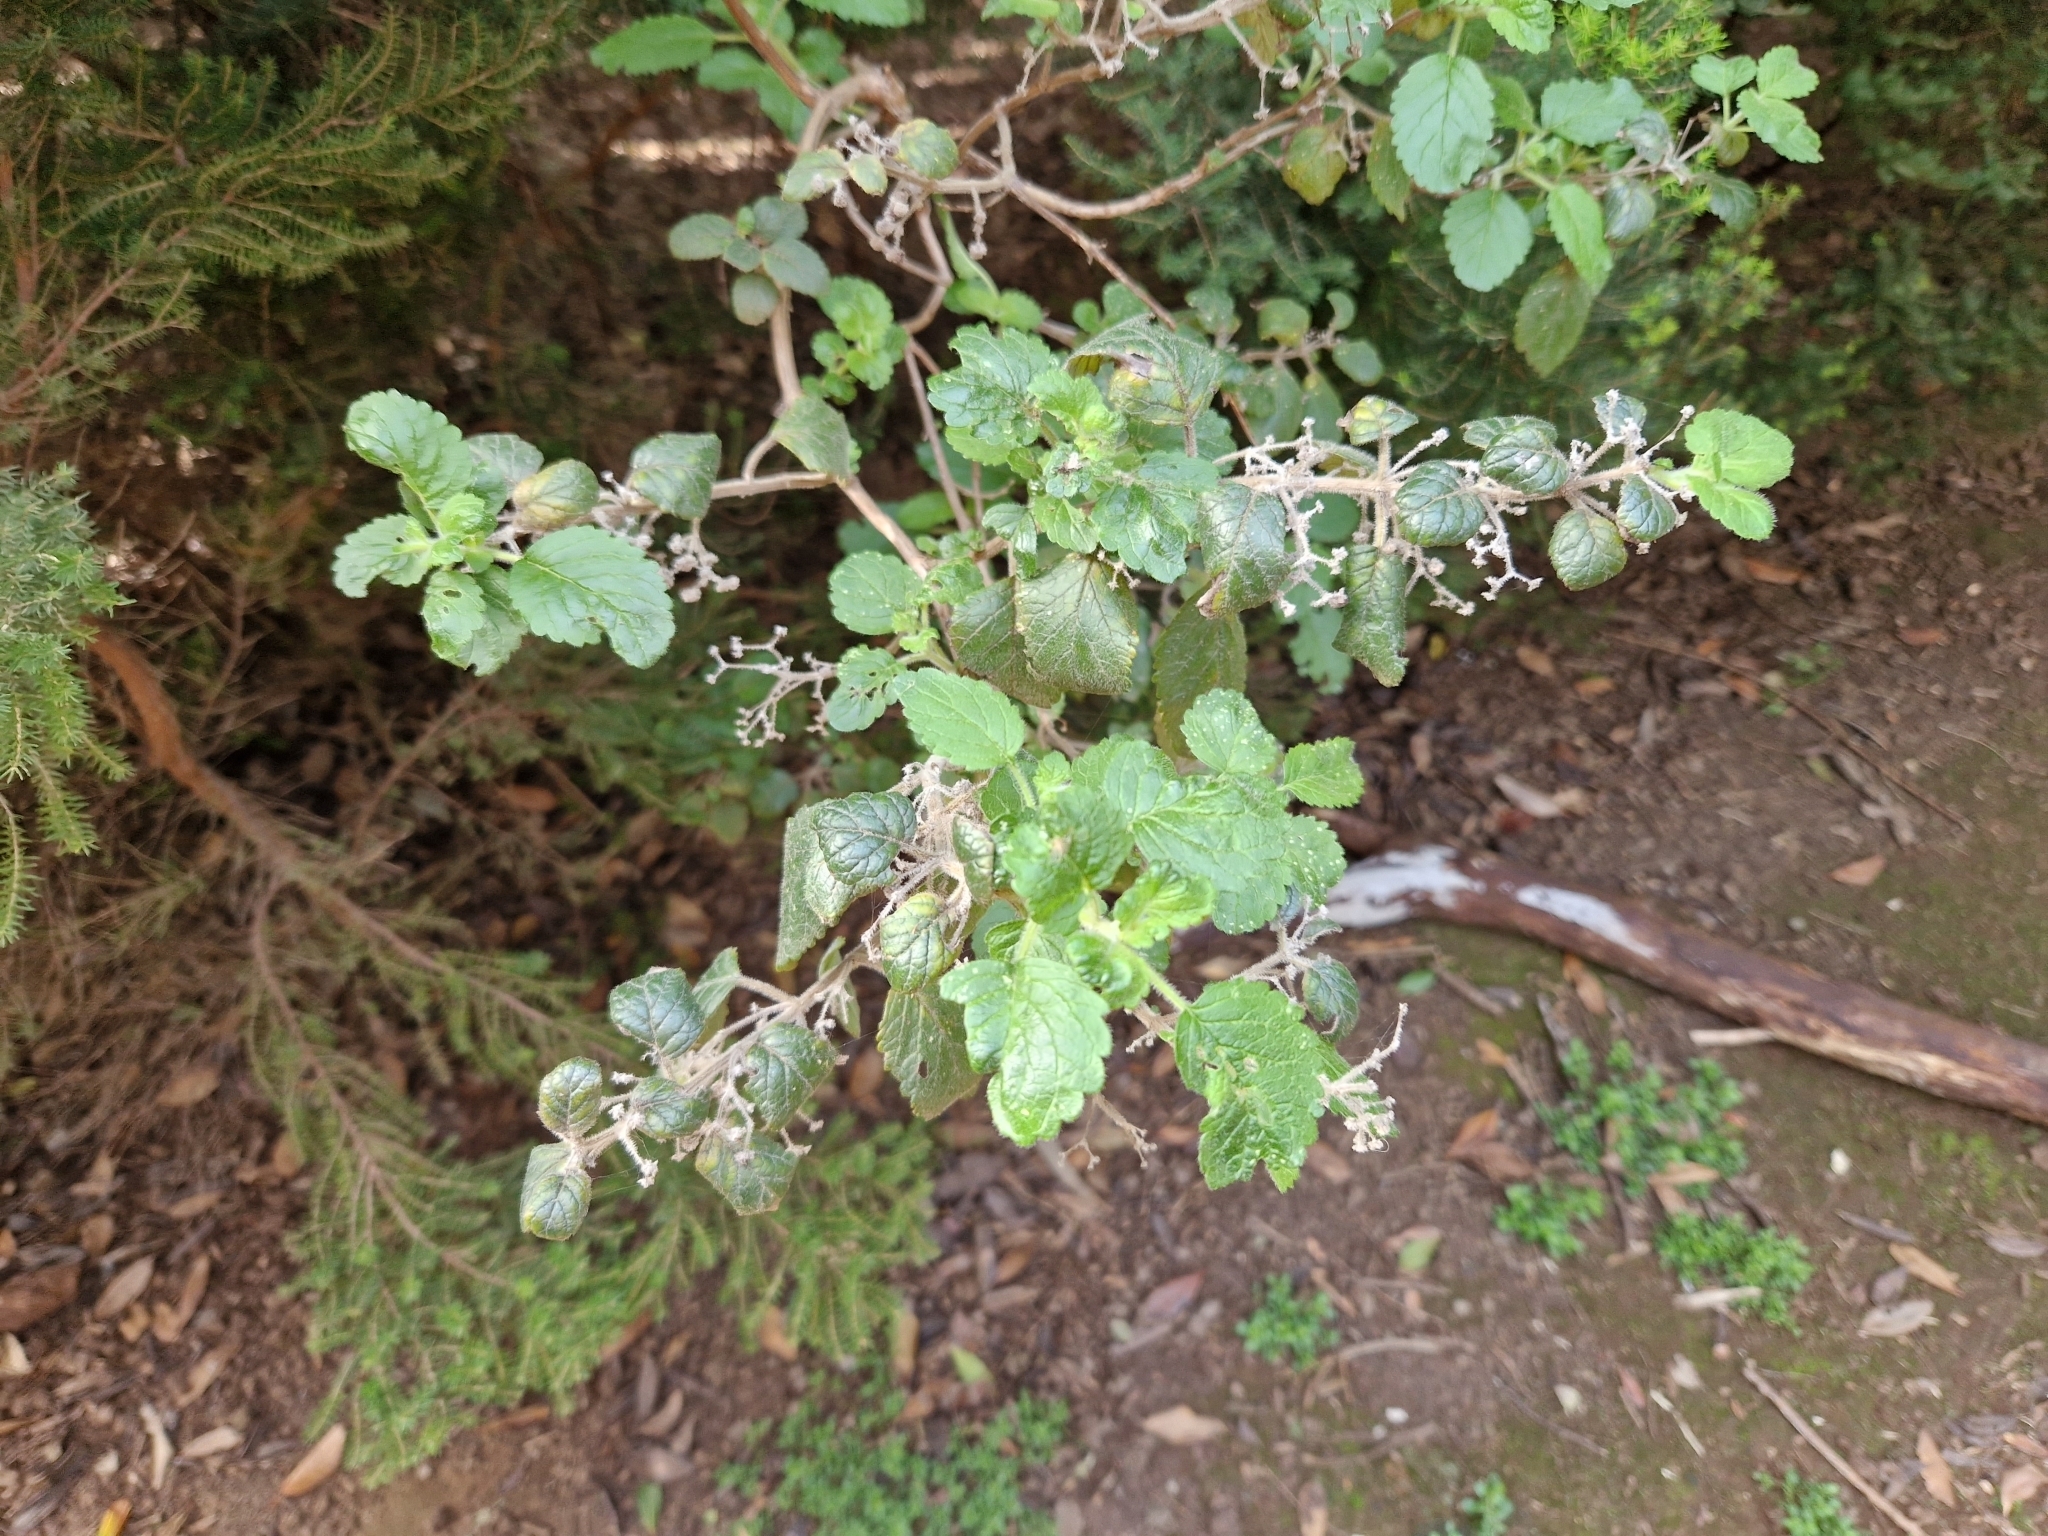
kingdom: Plantae
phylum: Tracheophyta
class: Magnoliopsida
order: Lamiales
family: Lamiaceae
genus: Bystropogon
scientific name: Bystropogon canariensis
